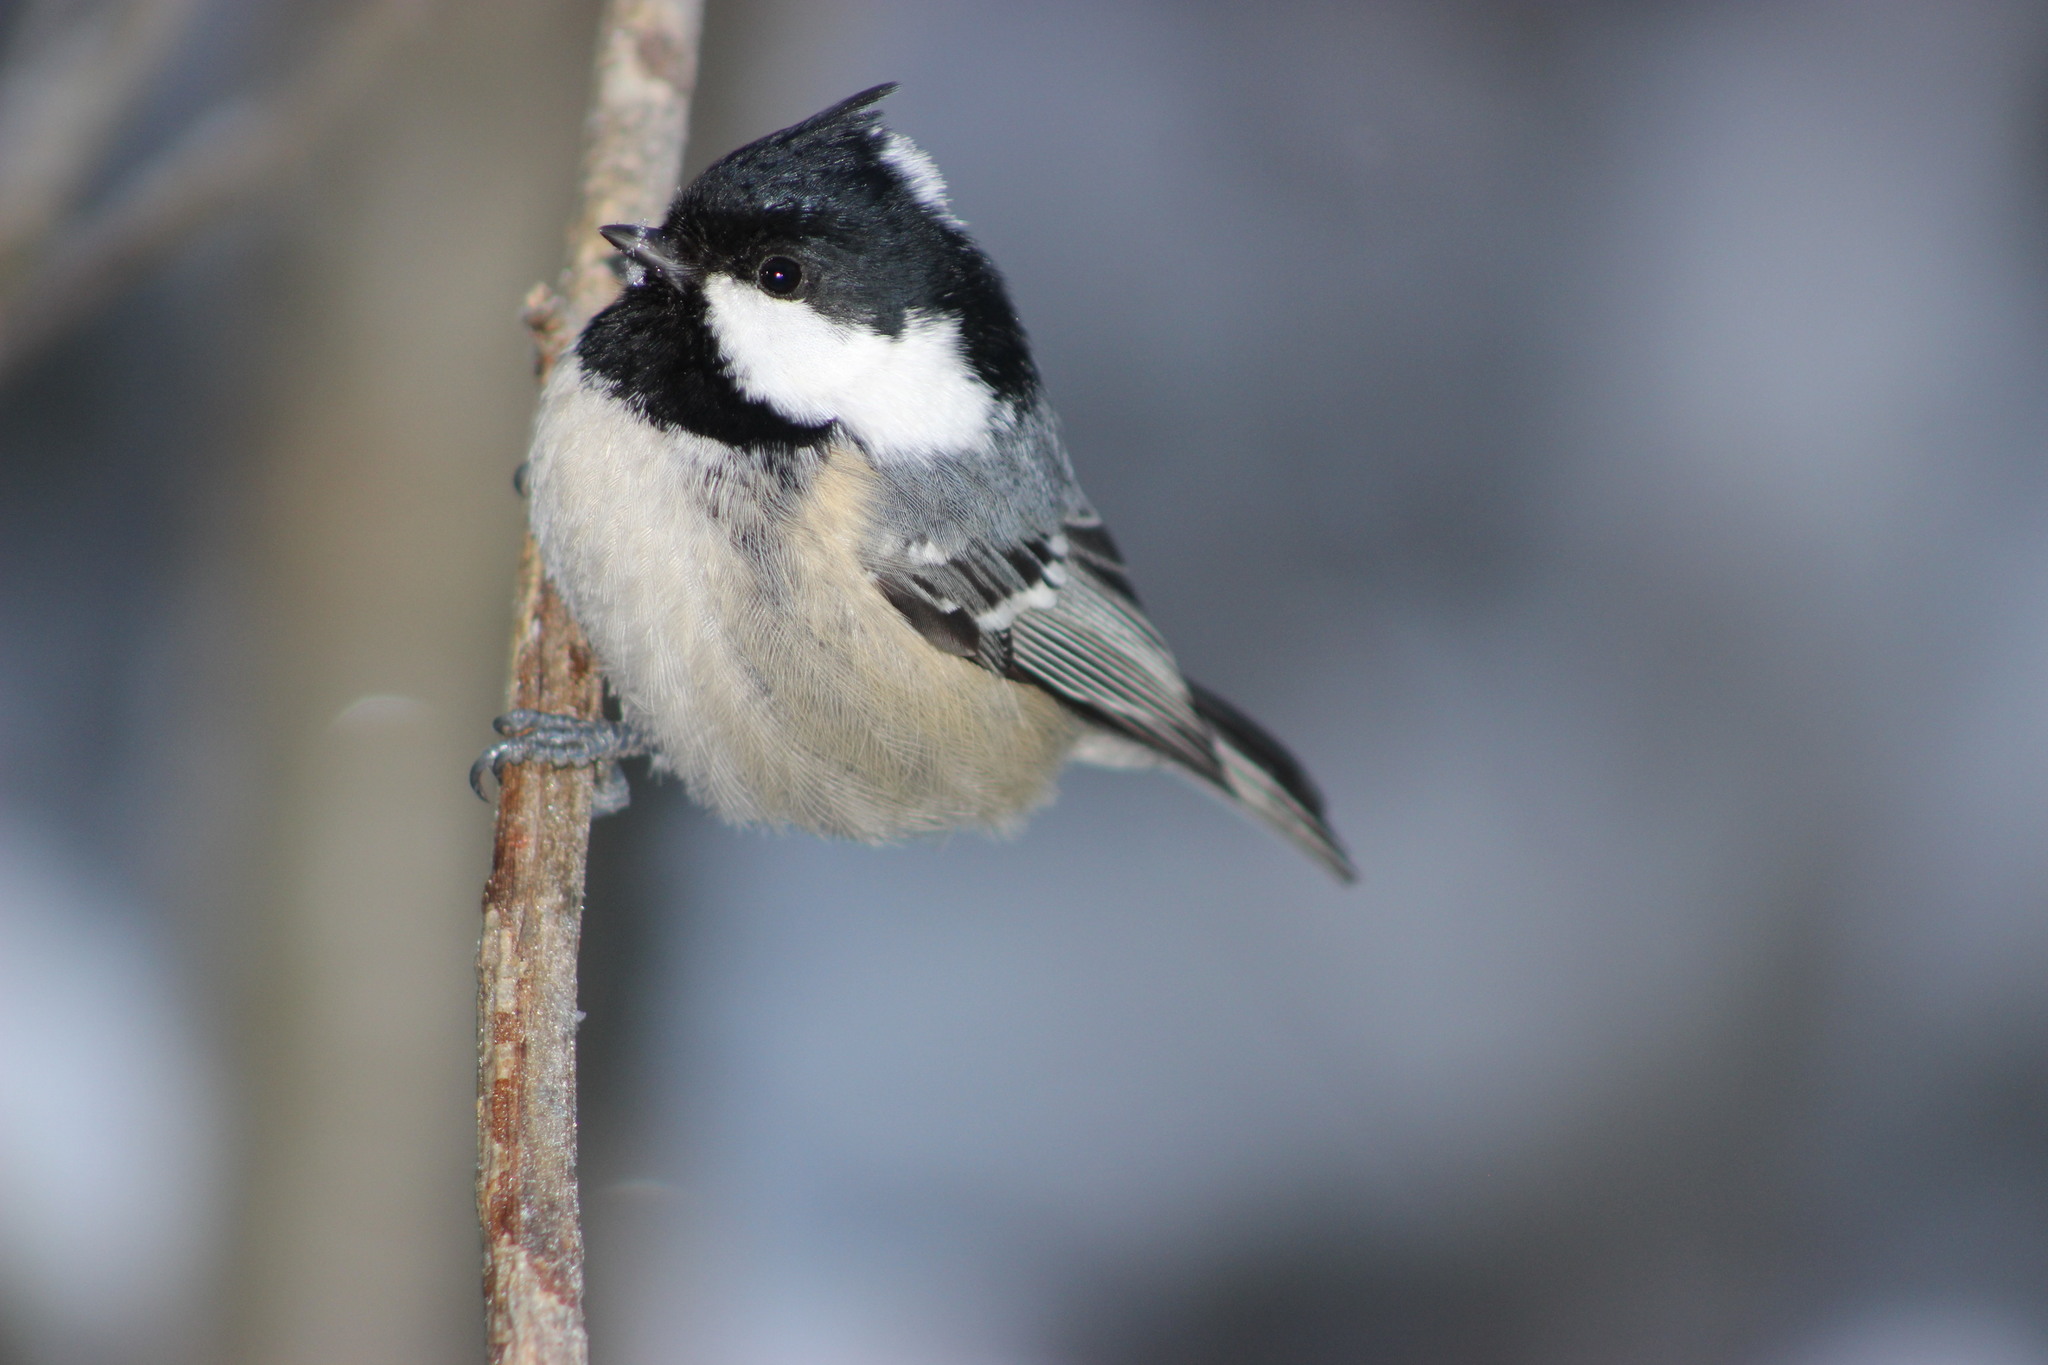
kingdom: Animalia
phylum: Chordata
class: Aves
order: Passeriformes
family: Paridae
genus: Periparus
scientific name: Periparus ater
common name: Coal tit
